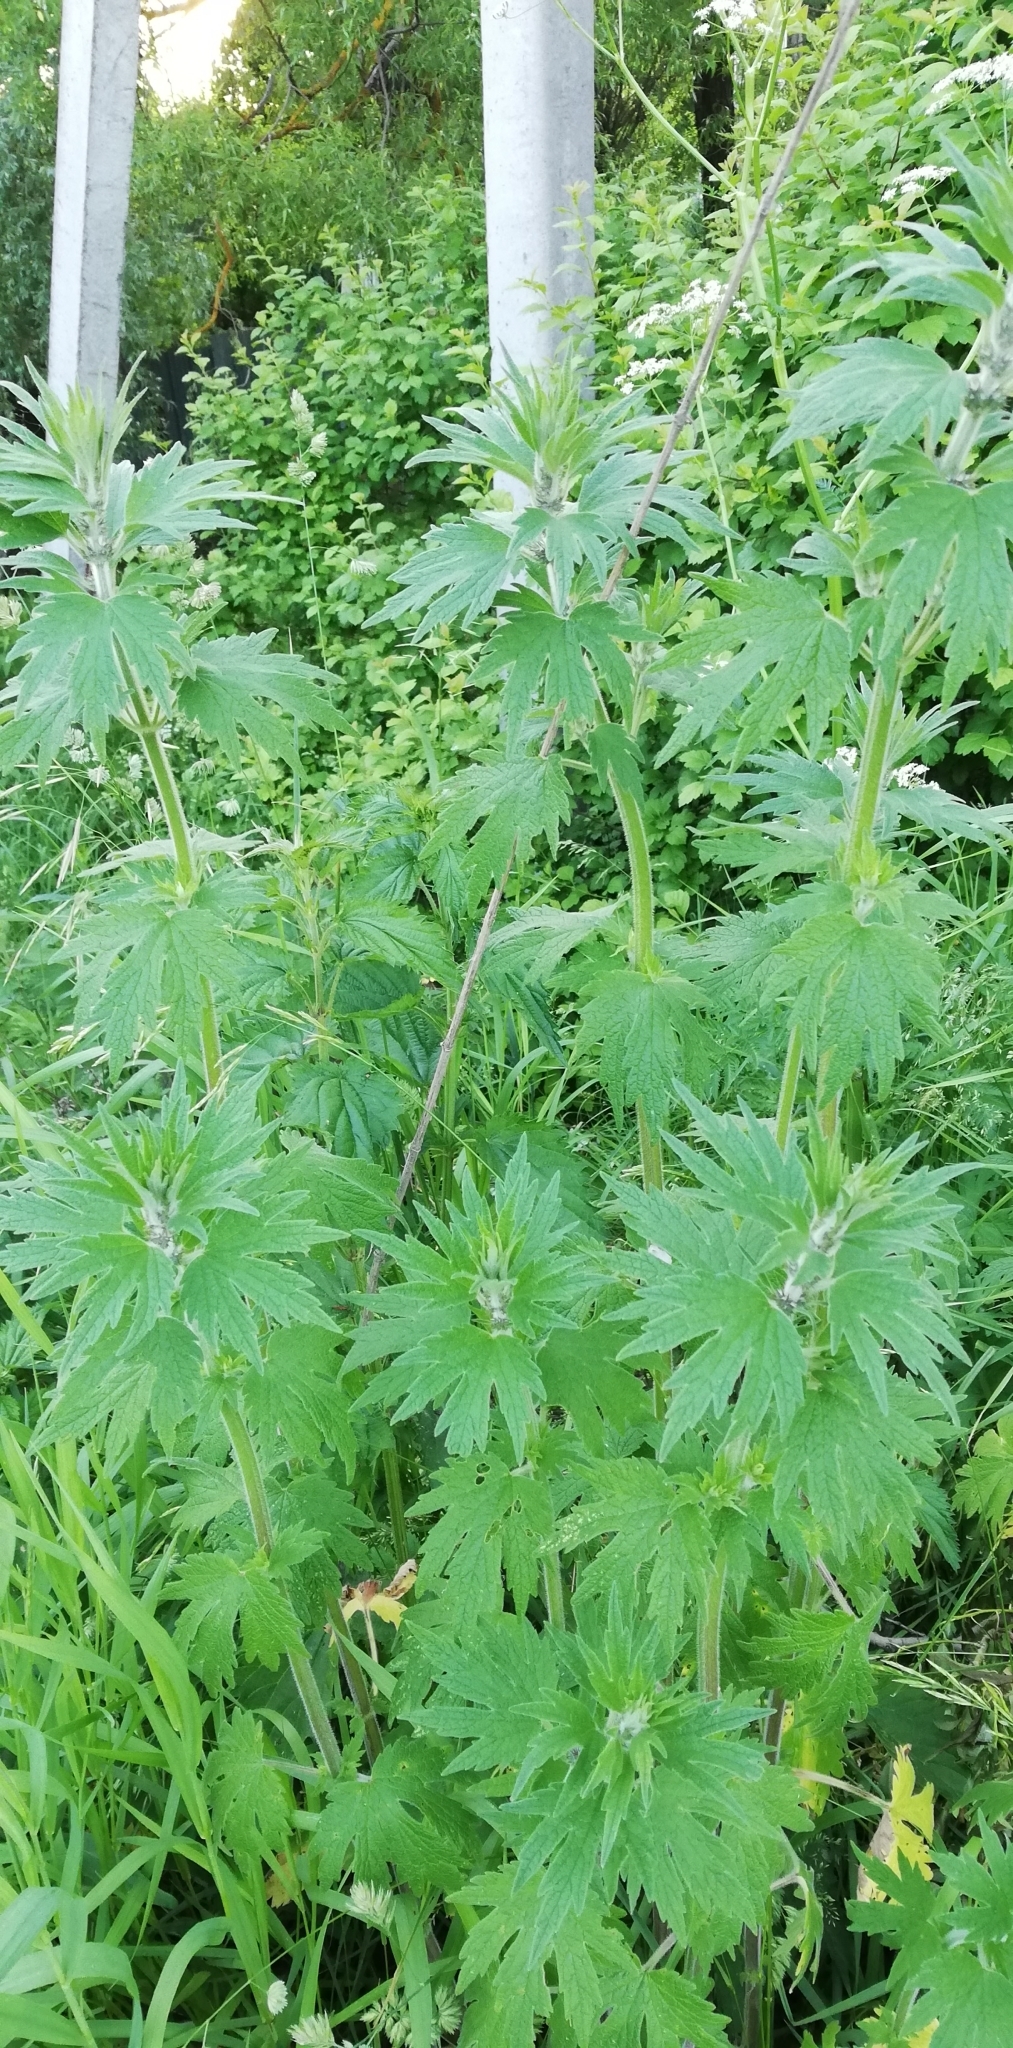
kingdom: Plantae
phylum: Tracheophyta
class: Magnoliopsida
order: Lamiales
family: Lamiaceae
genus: Leonurus
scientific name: Leonurus quinquelobatus
